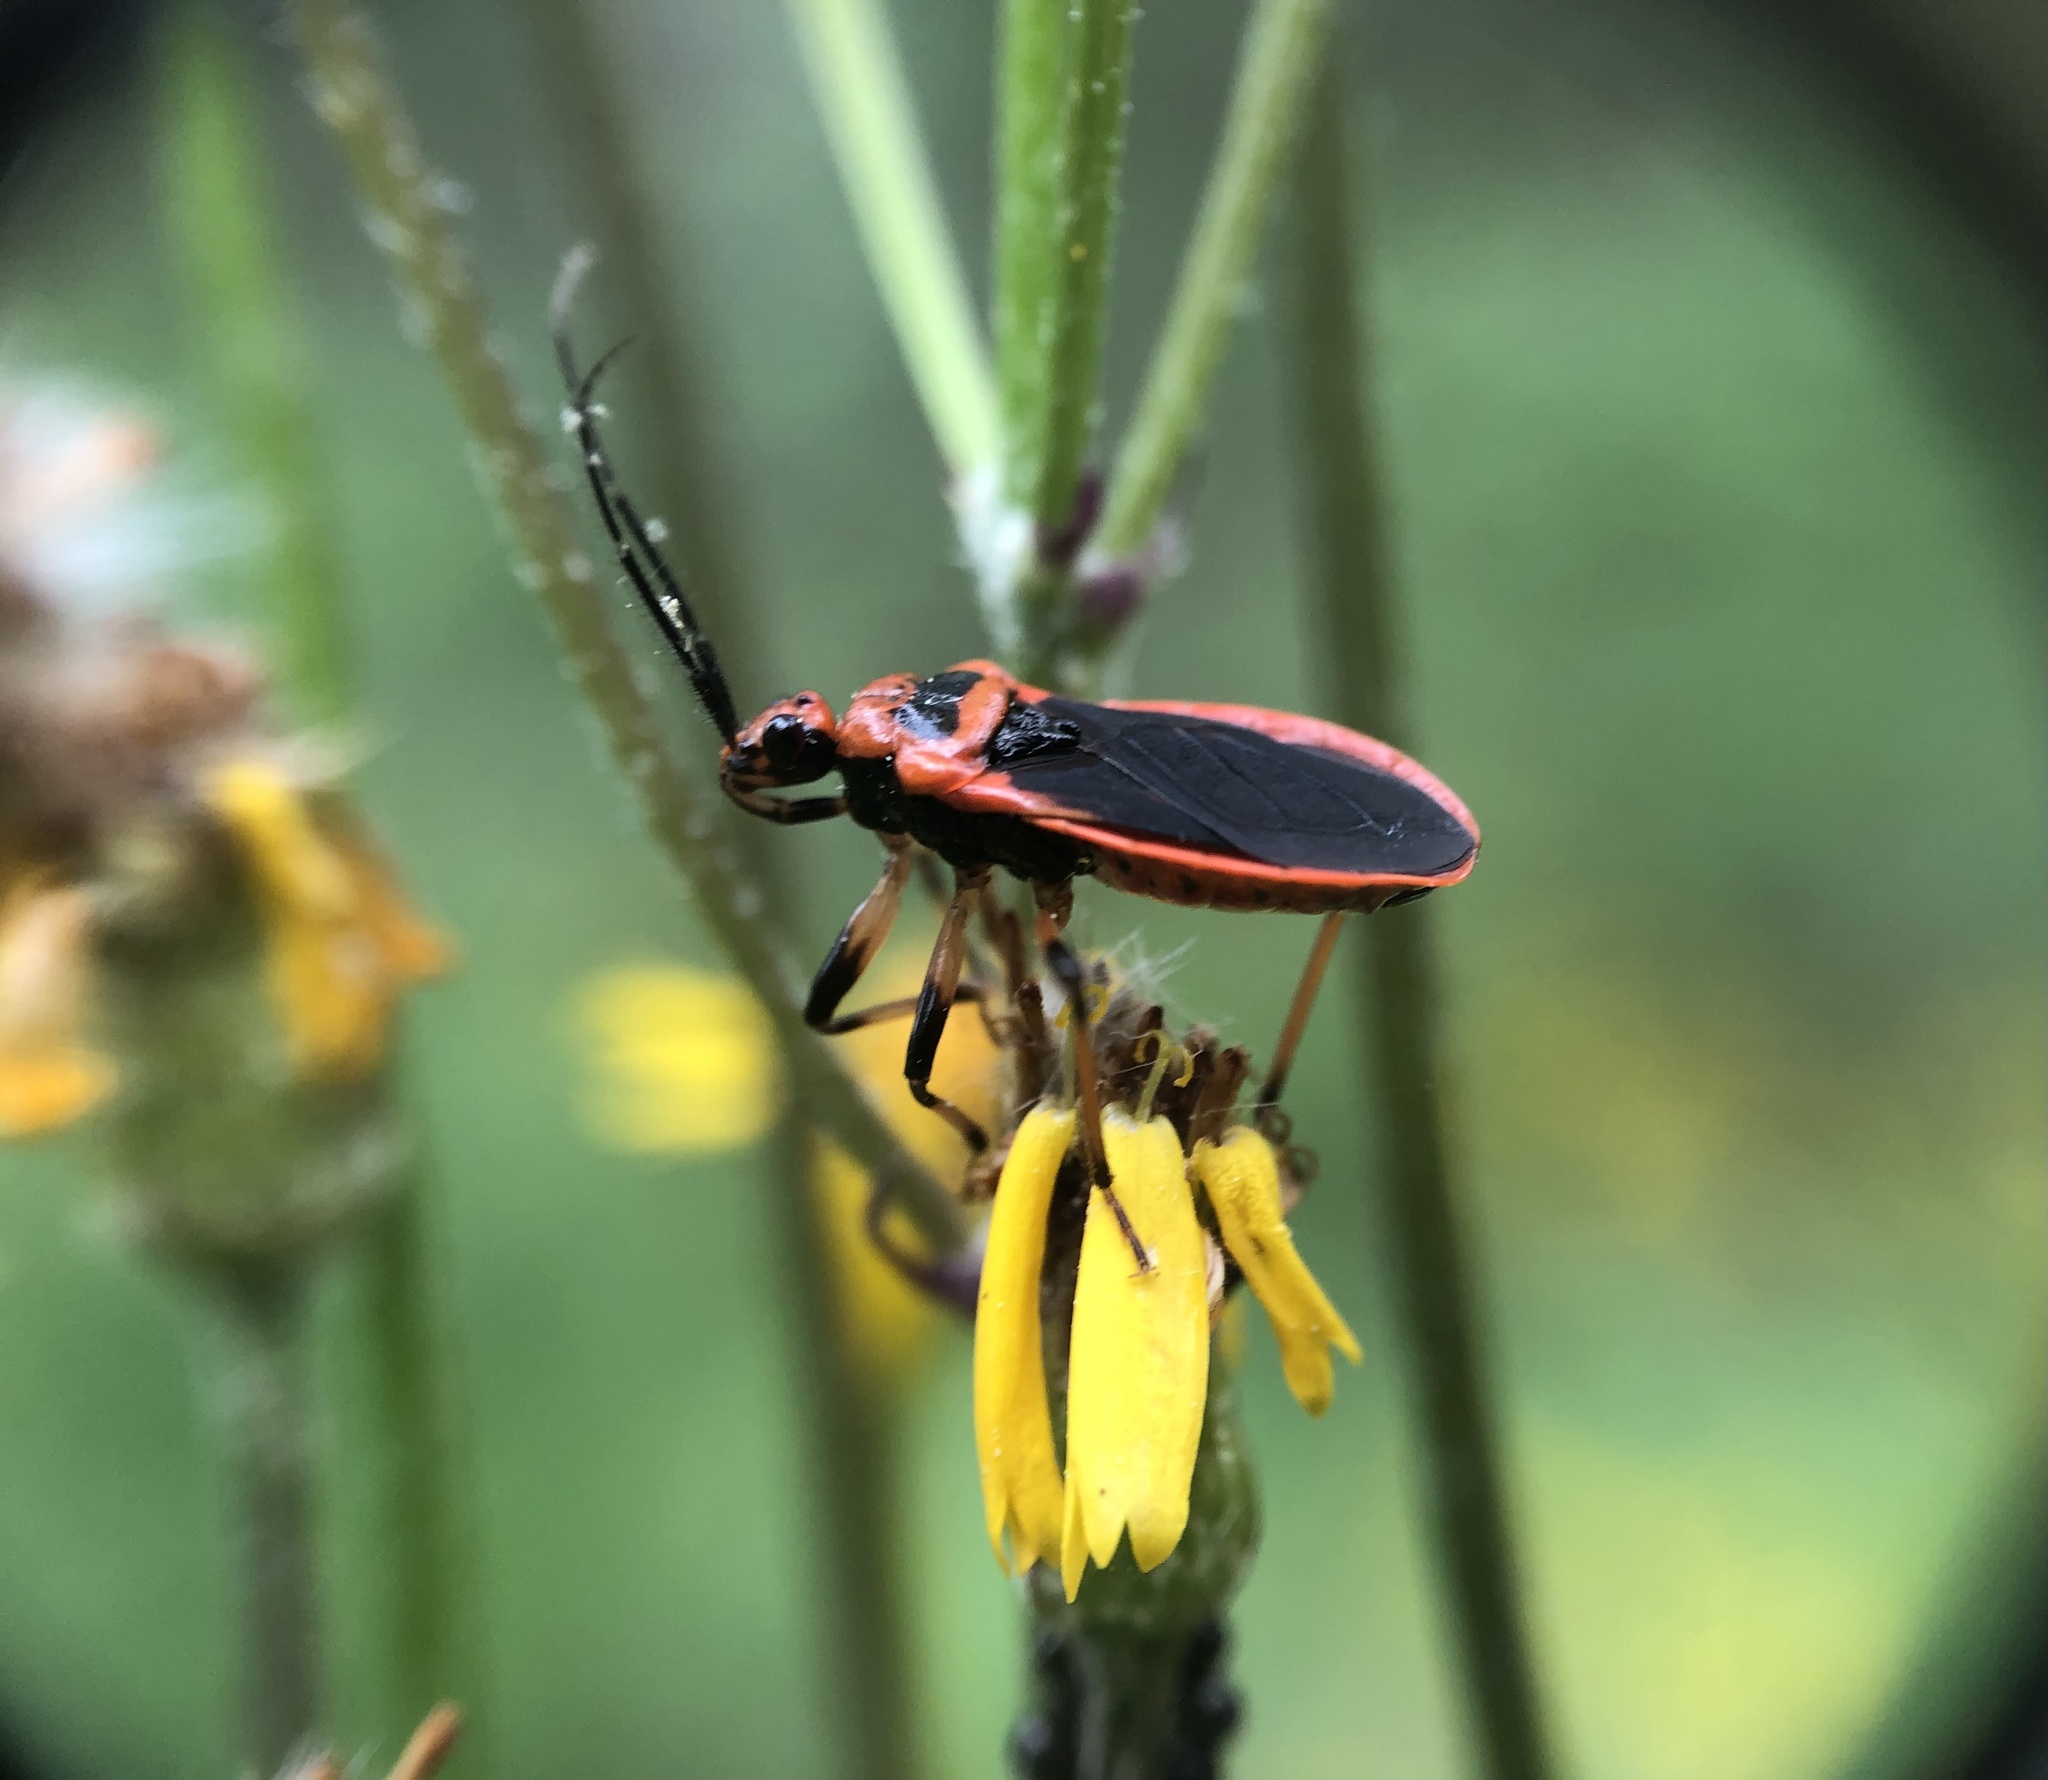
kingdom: Animalia
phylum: Arthropoda
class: Insecta
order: Hemiptera
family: Reduviidae
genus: Rhiginia
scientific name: Rhiginia cruciata
